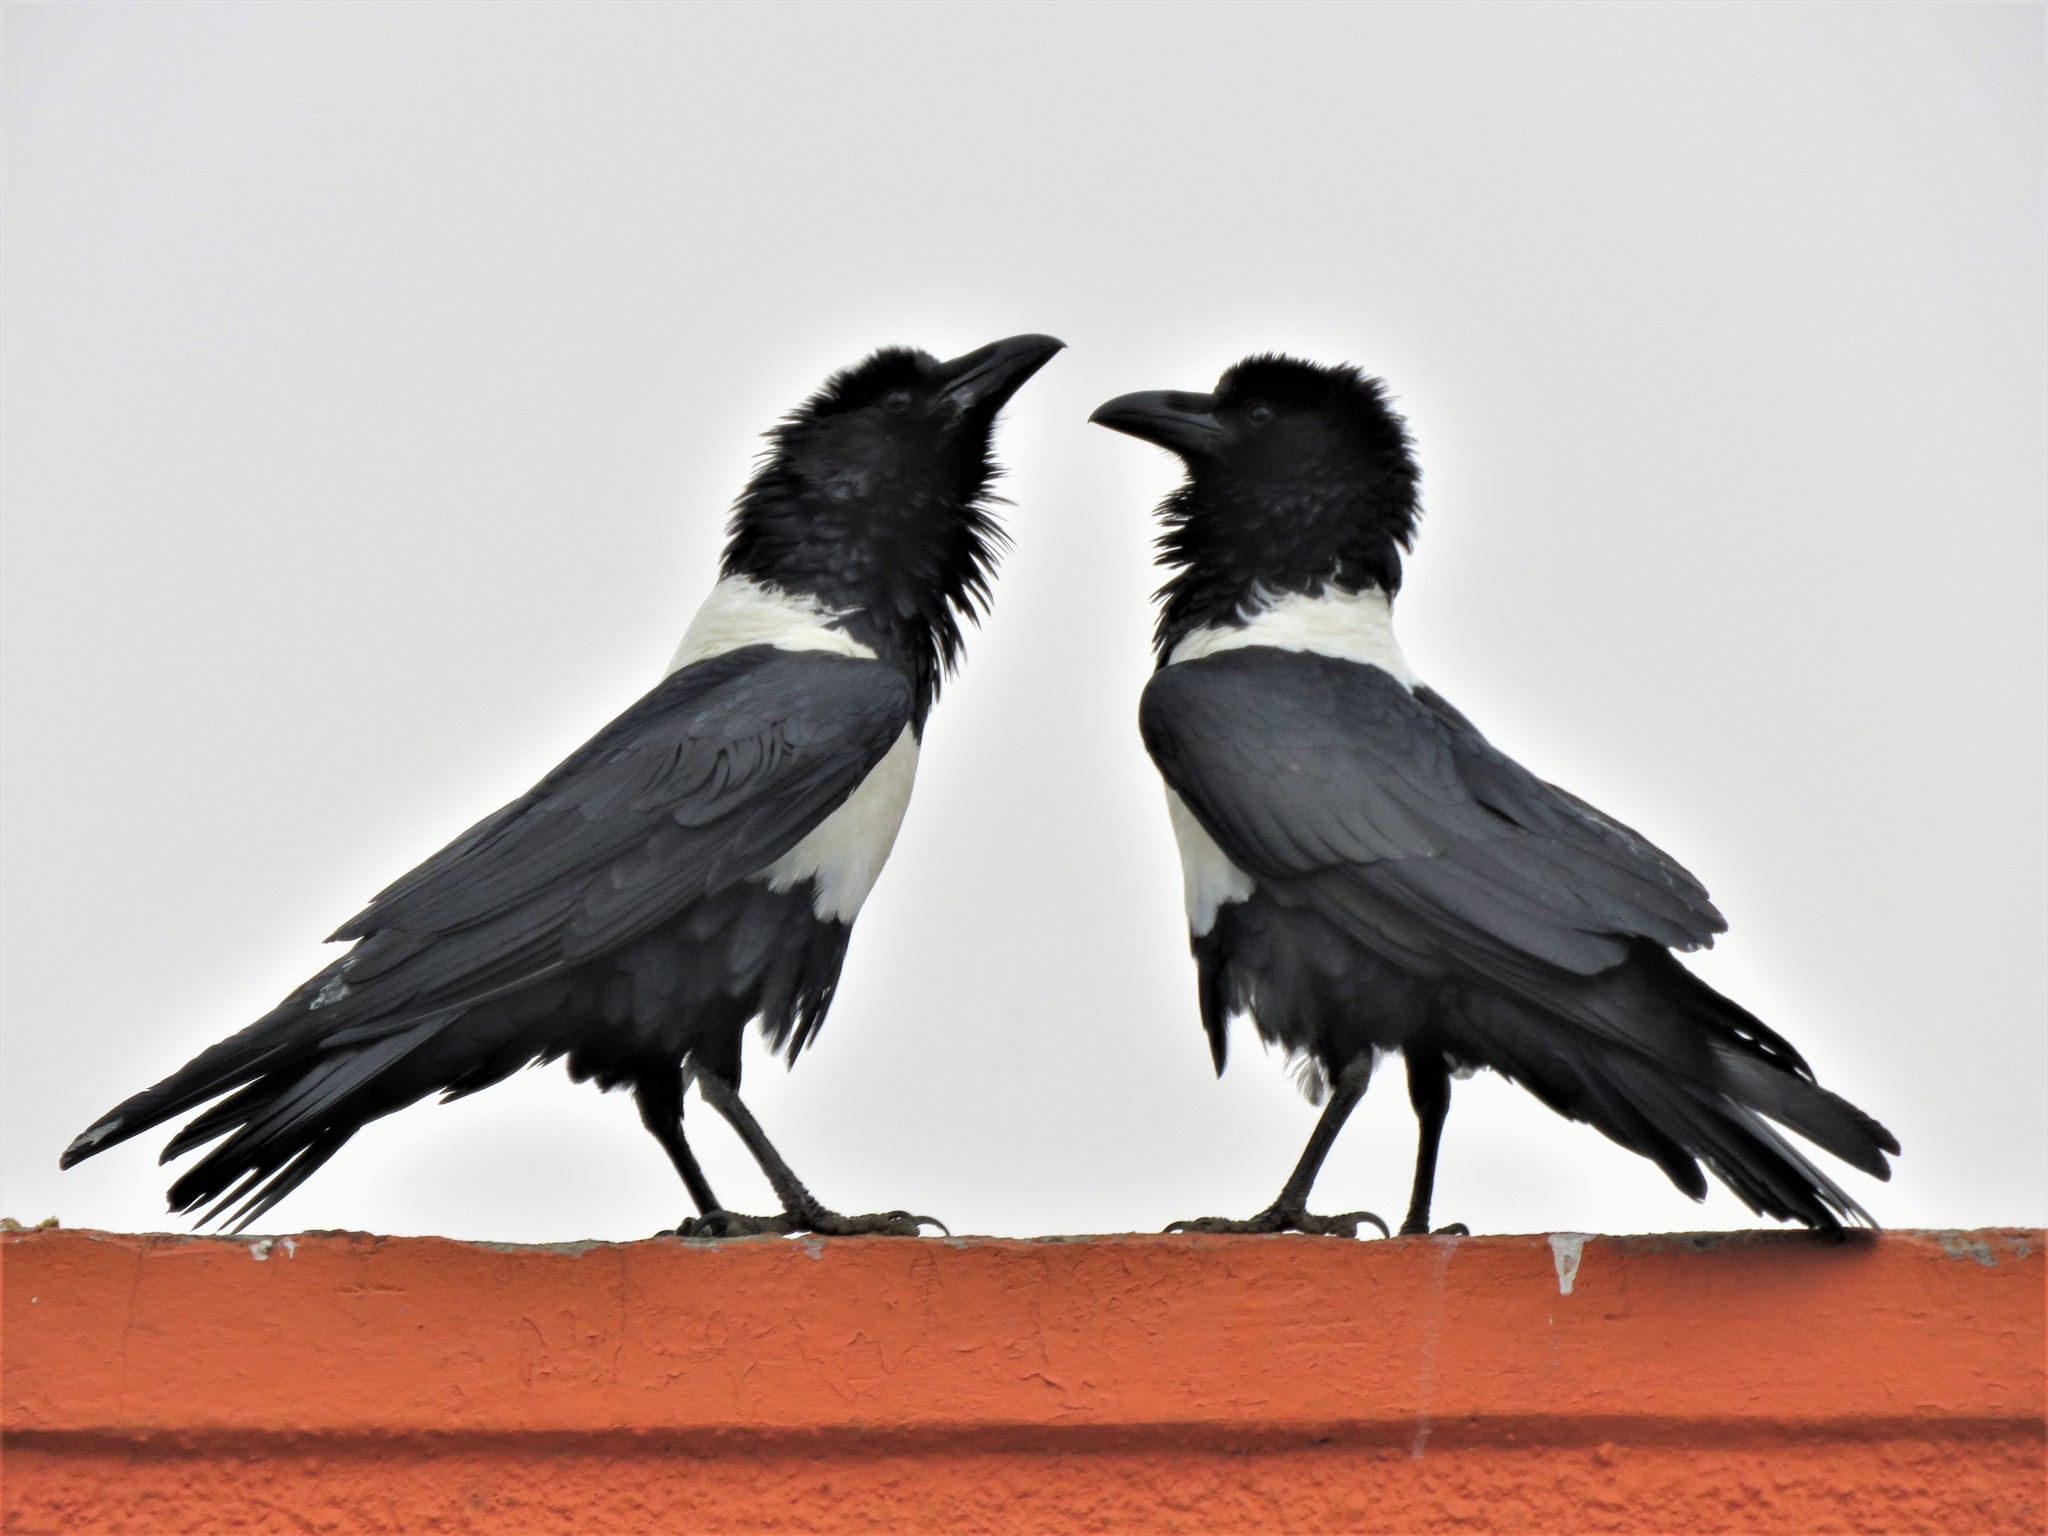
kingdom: Animalia
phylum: Chordata
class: Aves
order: Passeriformes
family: Corvidae
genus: Corvus
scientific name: Corvus albus
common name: Pied crow
